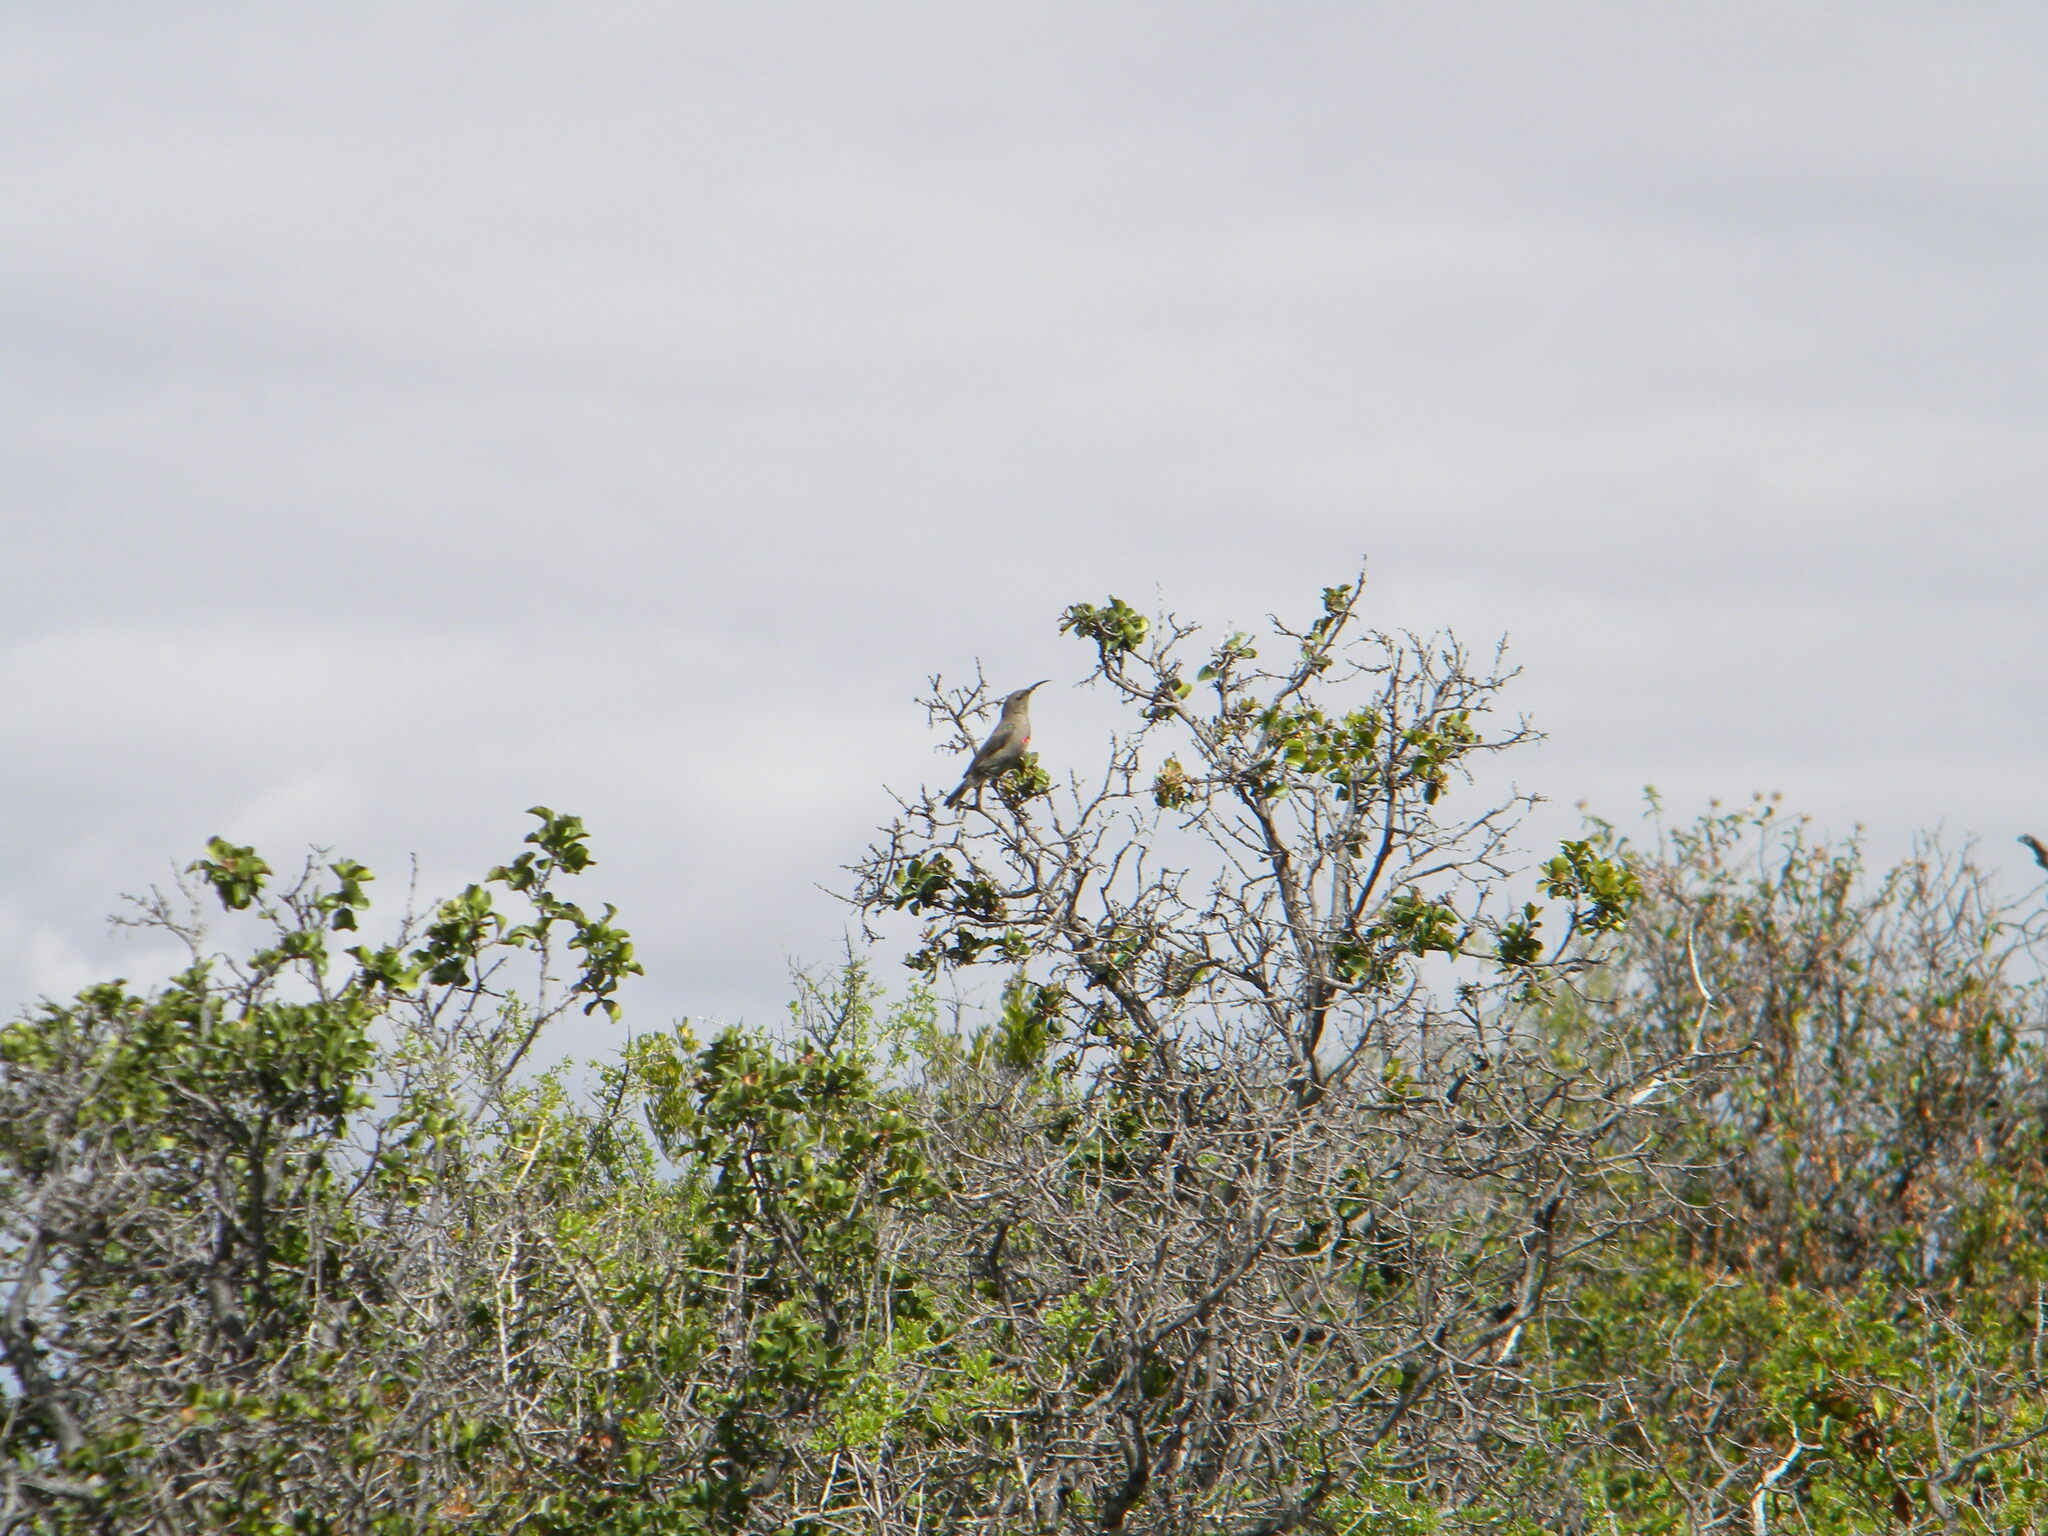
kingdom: Animalia
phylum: Chordata
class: Aves
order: Passeriformes
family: Nectariniidae
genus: Cinnyris
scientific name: Cinnyris chalybeus
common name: Southern double-collared sunbird
